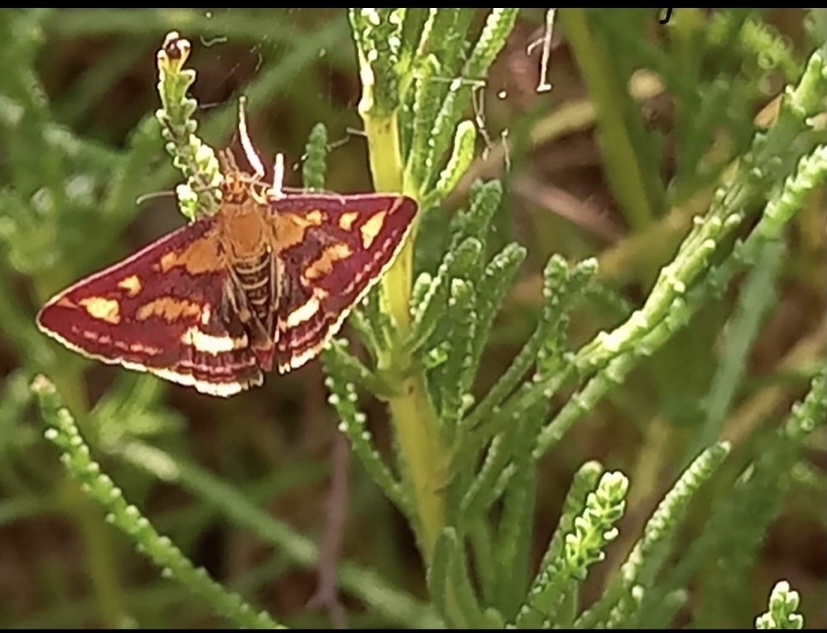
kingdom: Animalia
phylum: Arthropoda
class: Insecta
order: Lepidoptera
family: Crambidae
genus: Pyrausta
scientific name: Pyrausta purpuralis
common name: Common purple & gold
